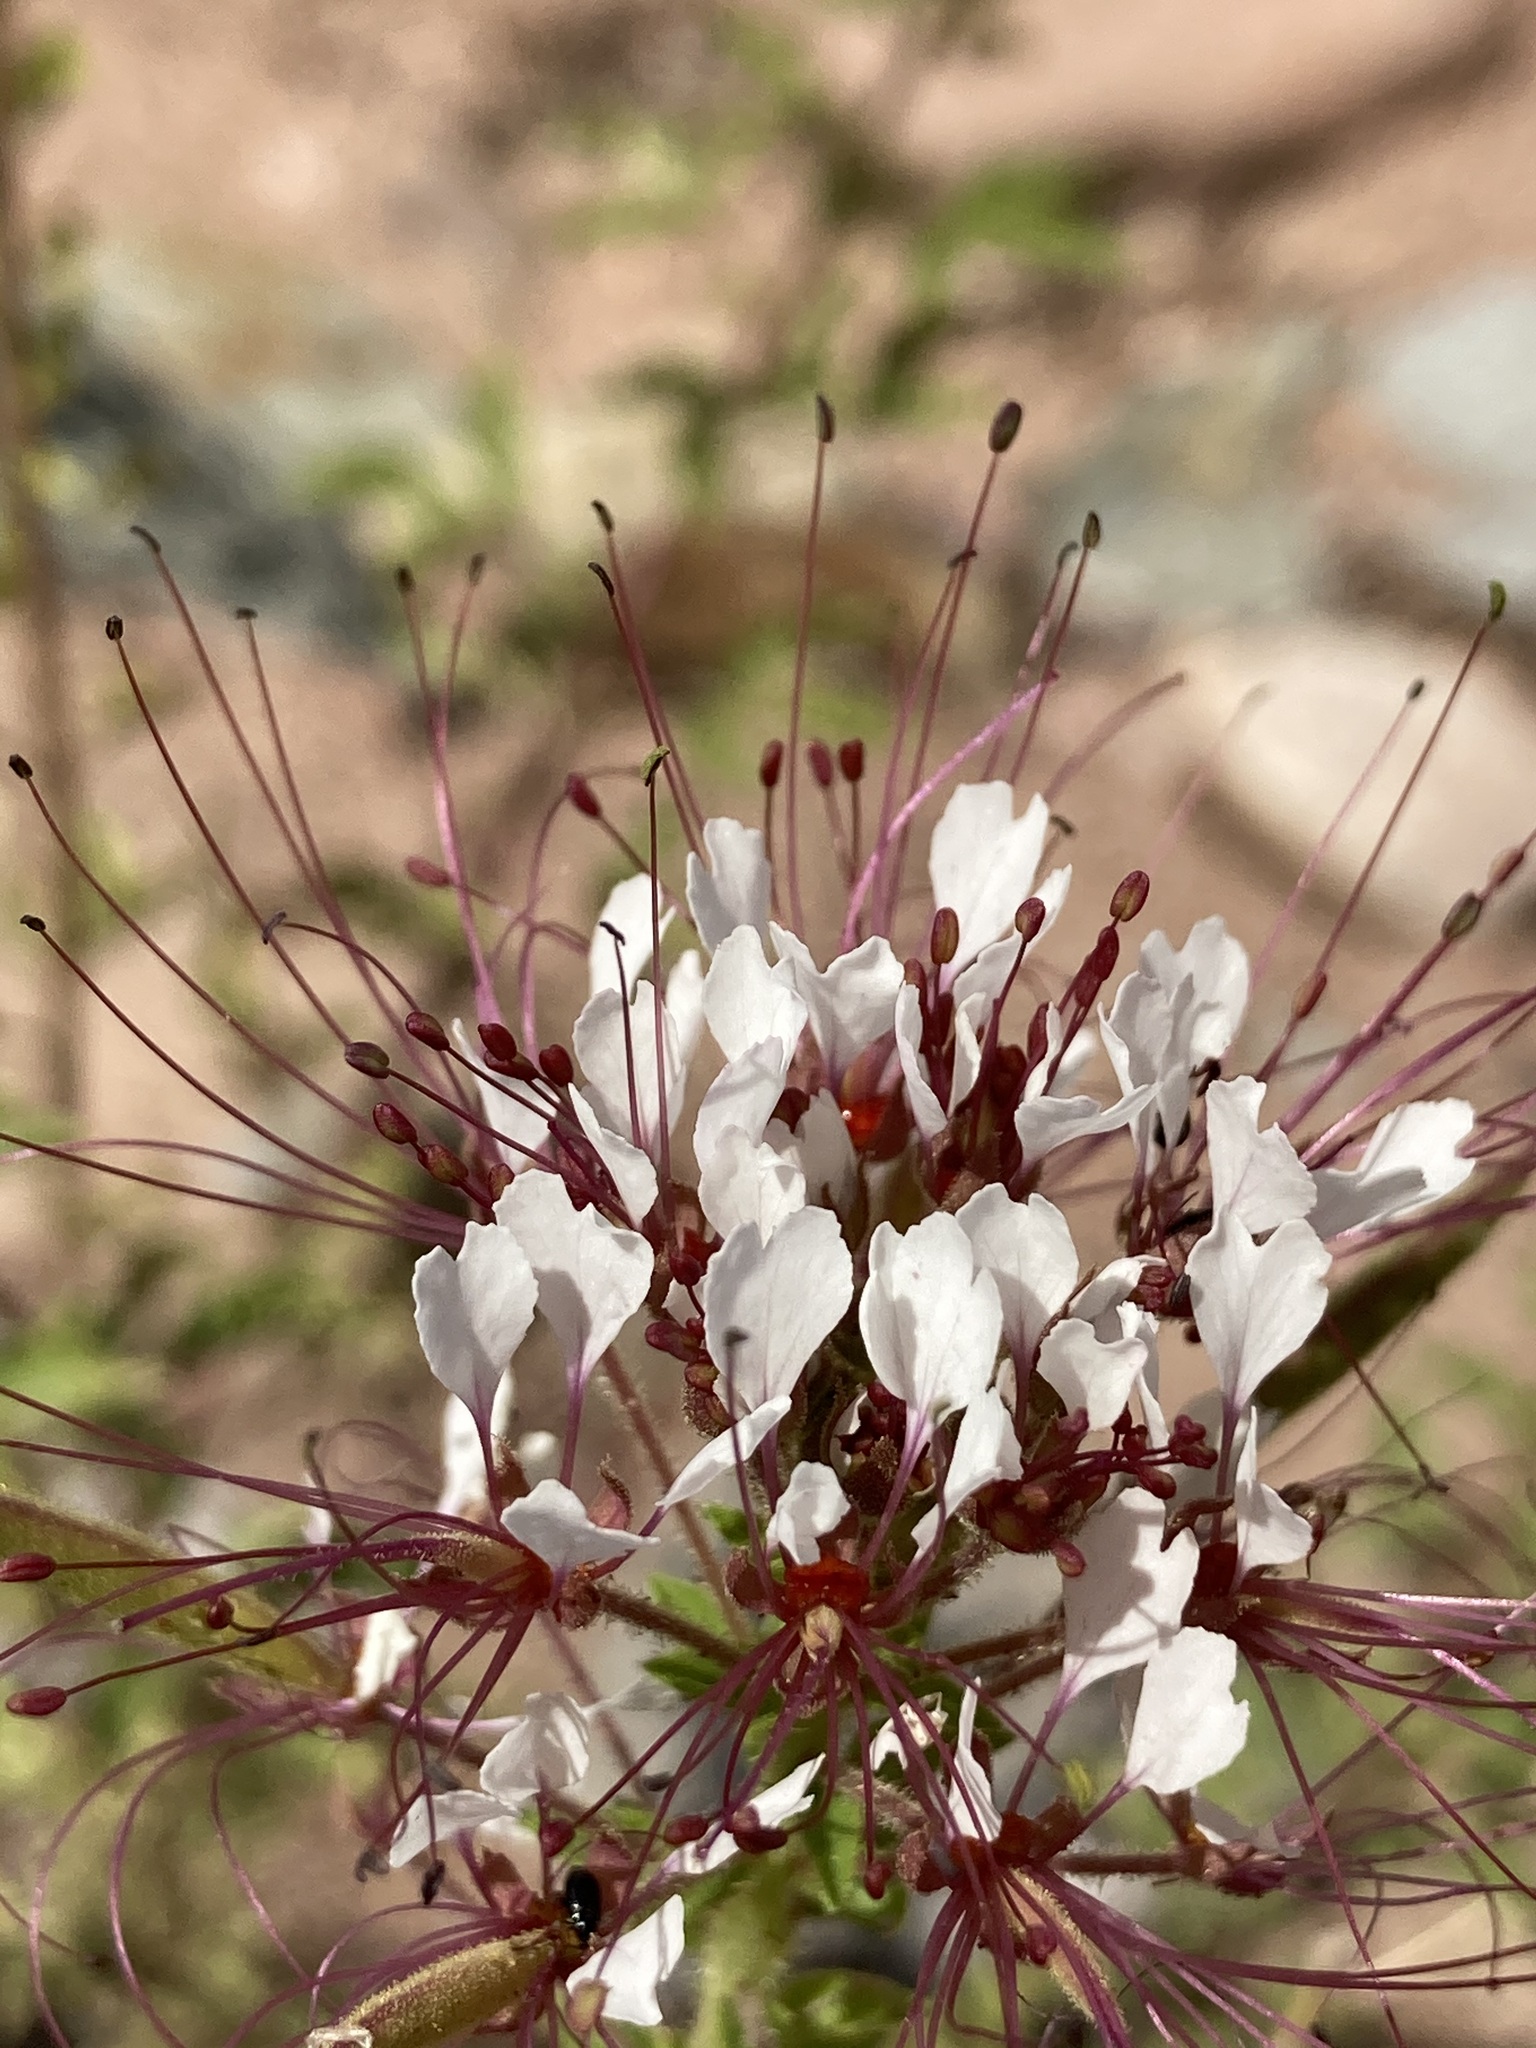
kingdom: Plantae
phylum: Tracheophyta
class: Magnoliopsida
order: Brassicales
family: Cleomaceae
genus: Polanisia
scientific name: Polanisia dodecandra
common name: Clammyweed
